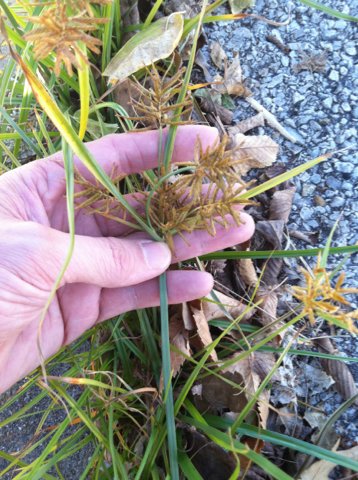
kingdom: Plantae
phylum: Tracheophyta
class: Liliopsida
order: Poales
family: Cyperaceae
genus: Cyperus
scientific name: Cyperus esculentus
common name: Yellow nutsedge
